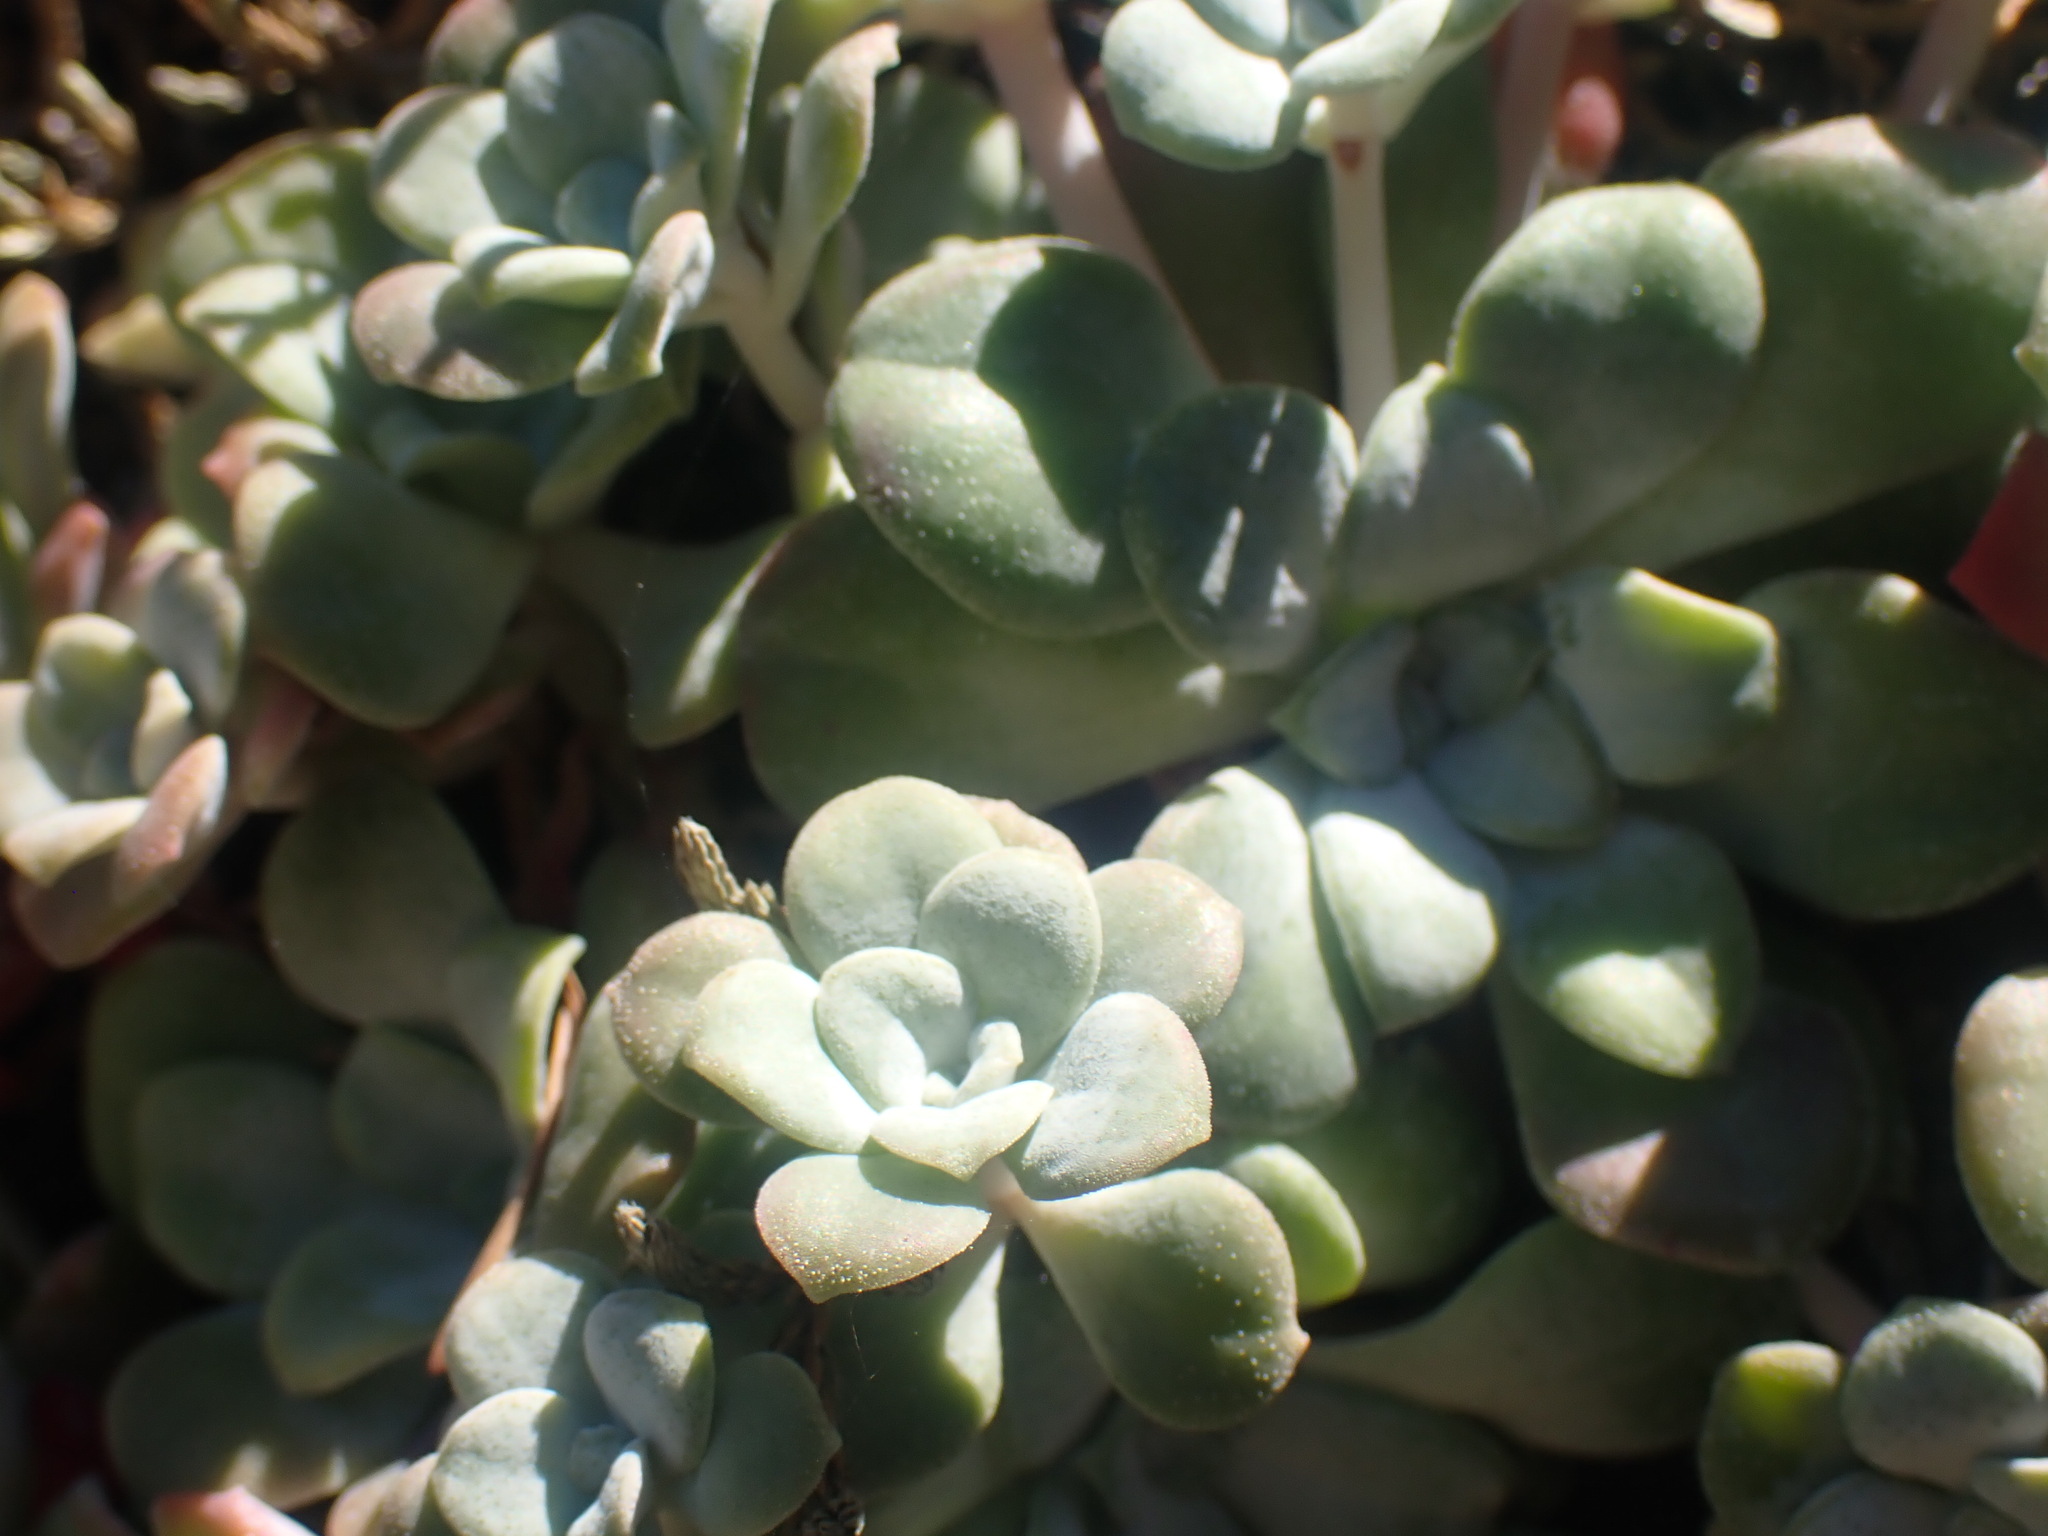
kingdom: Plantae
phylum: Tracheophyta
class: Magnoliopsida
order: Saxifragales
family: Crassulaceae
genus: Sedum
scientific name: Sedum spathulifolium
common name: Colorado stonecrop
